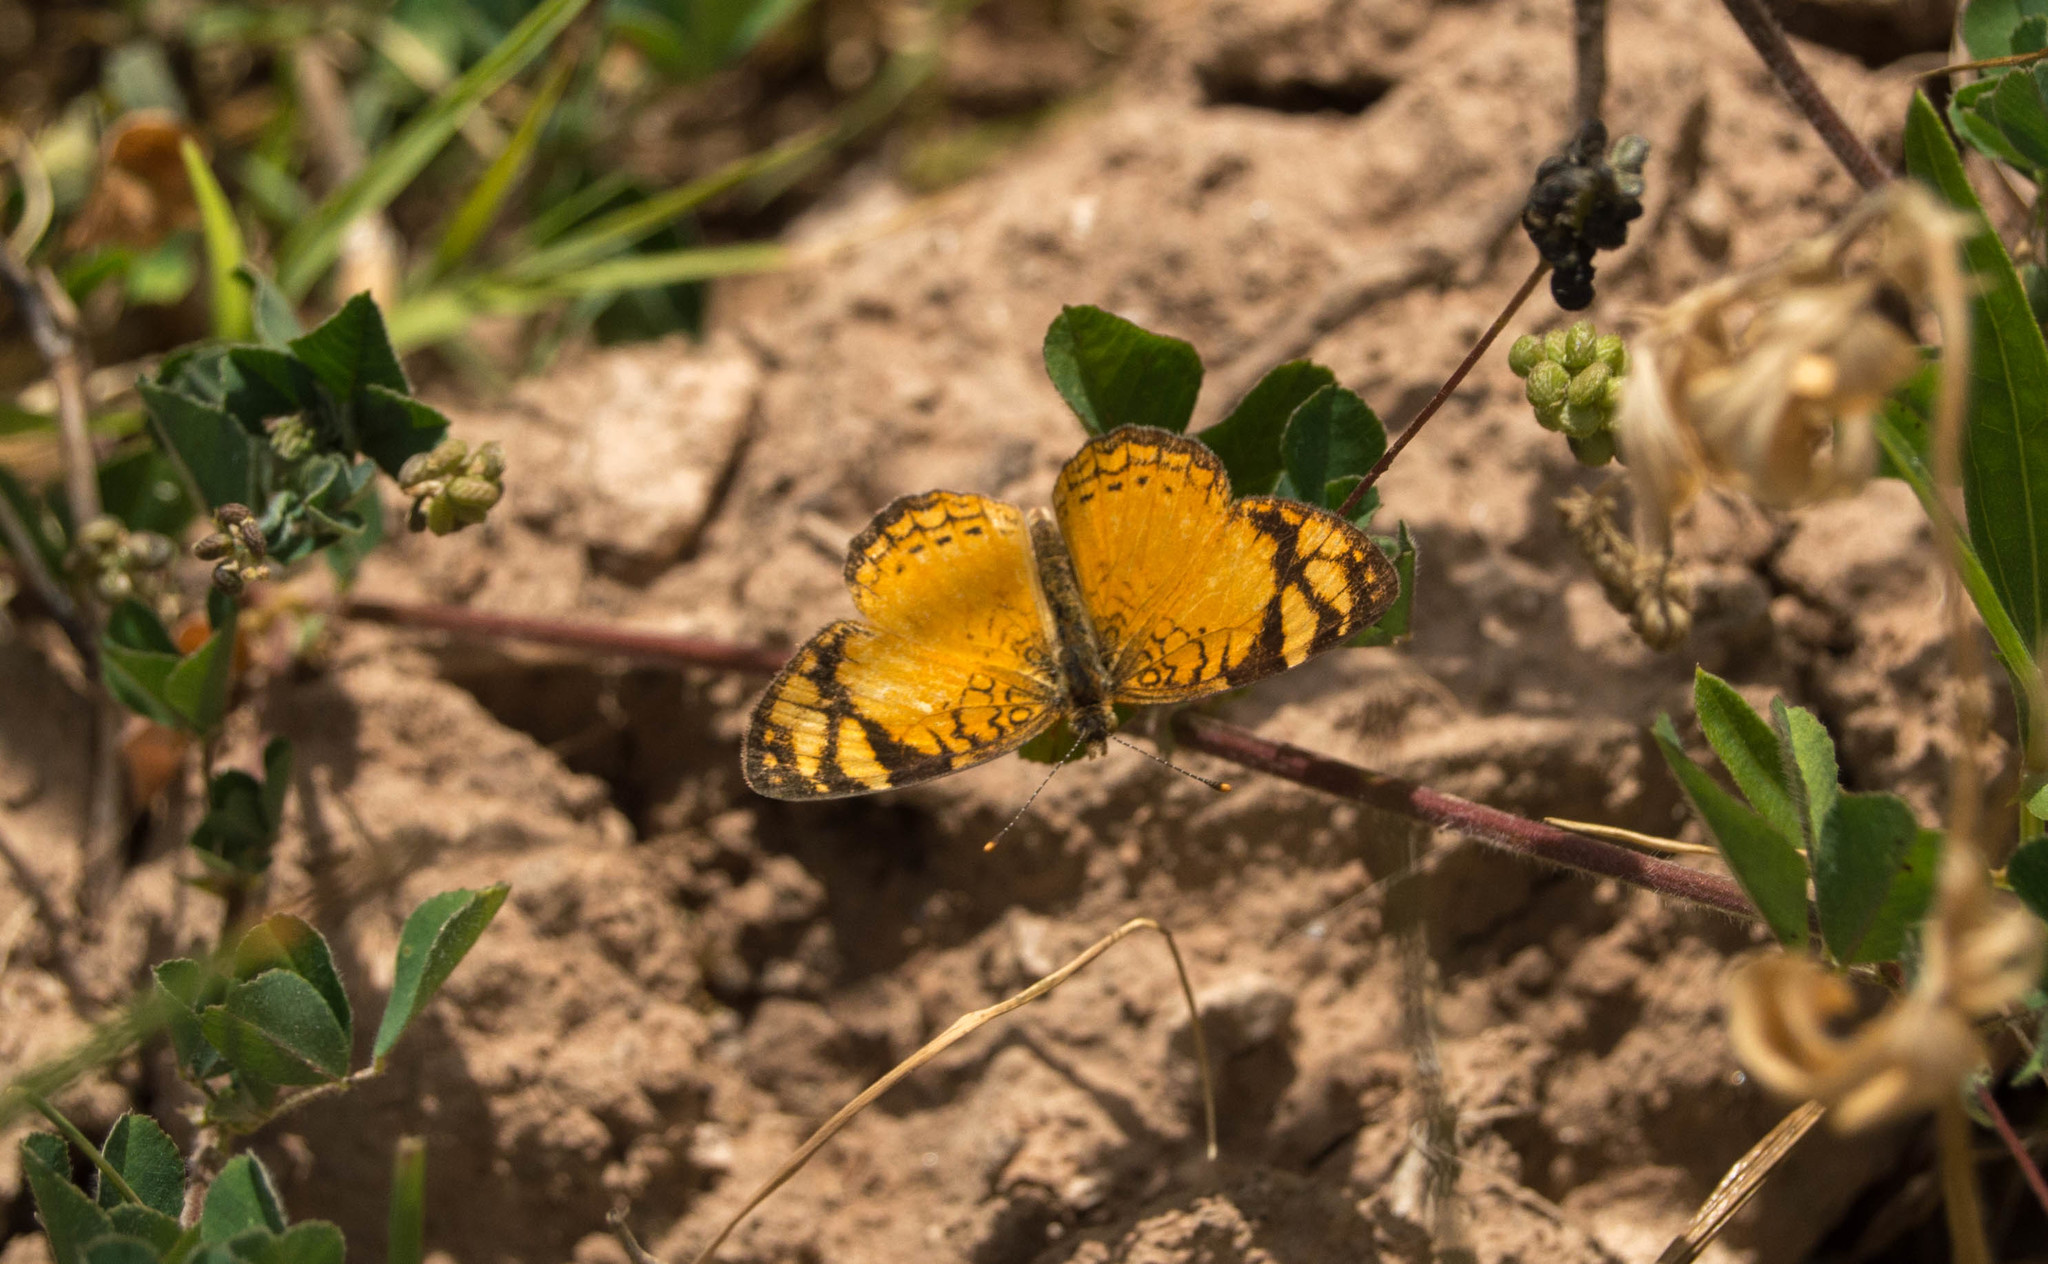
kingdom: Animalia
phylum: Arthropoda
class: Insecta
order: Lepidoptera
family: Nymphalidae
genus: Tegosa
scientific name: Tegosa orobia
